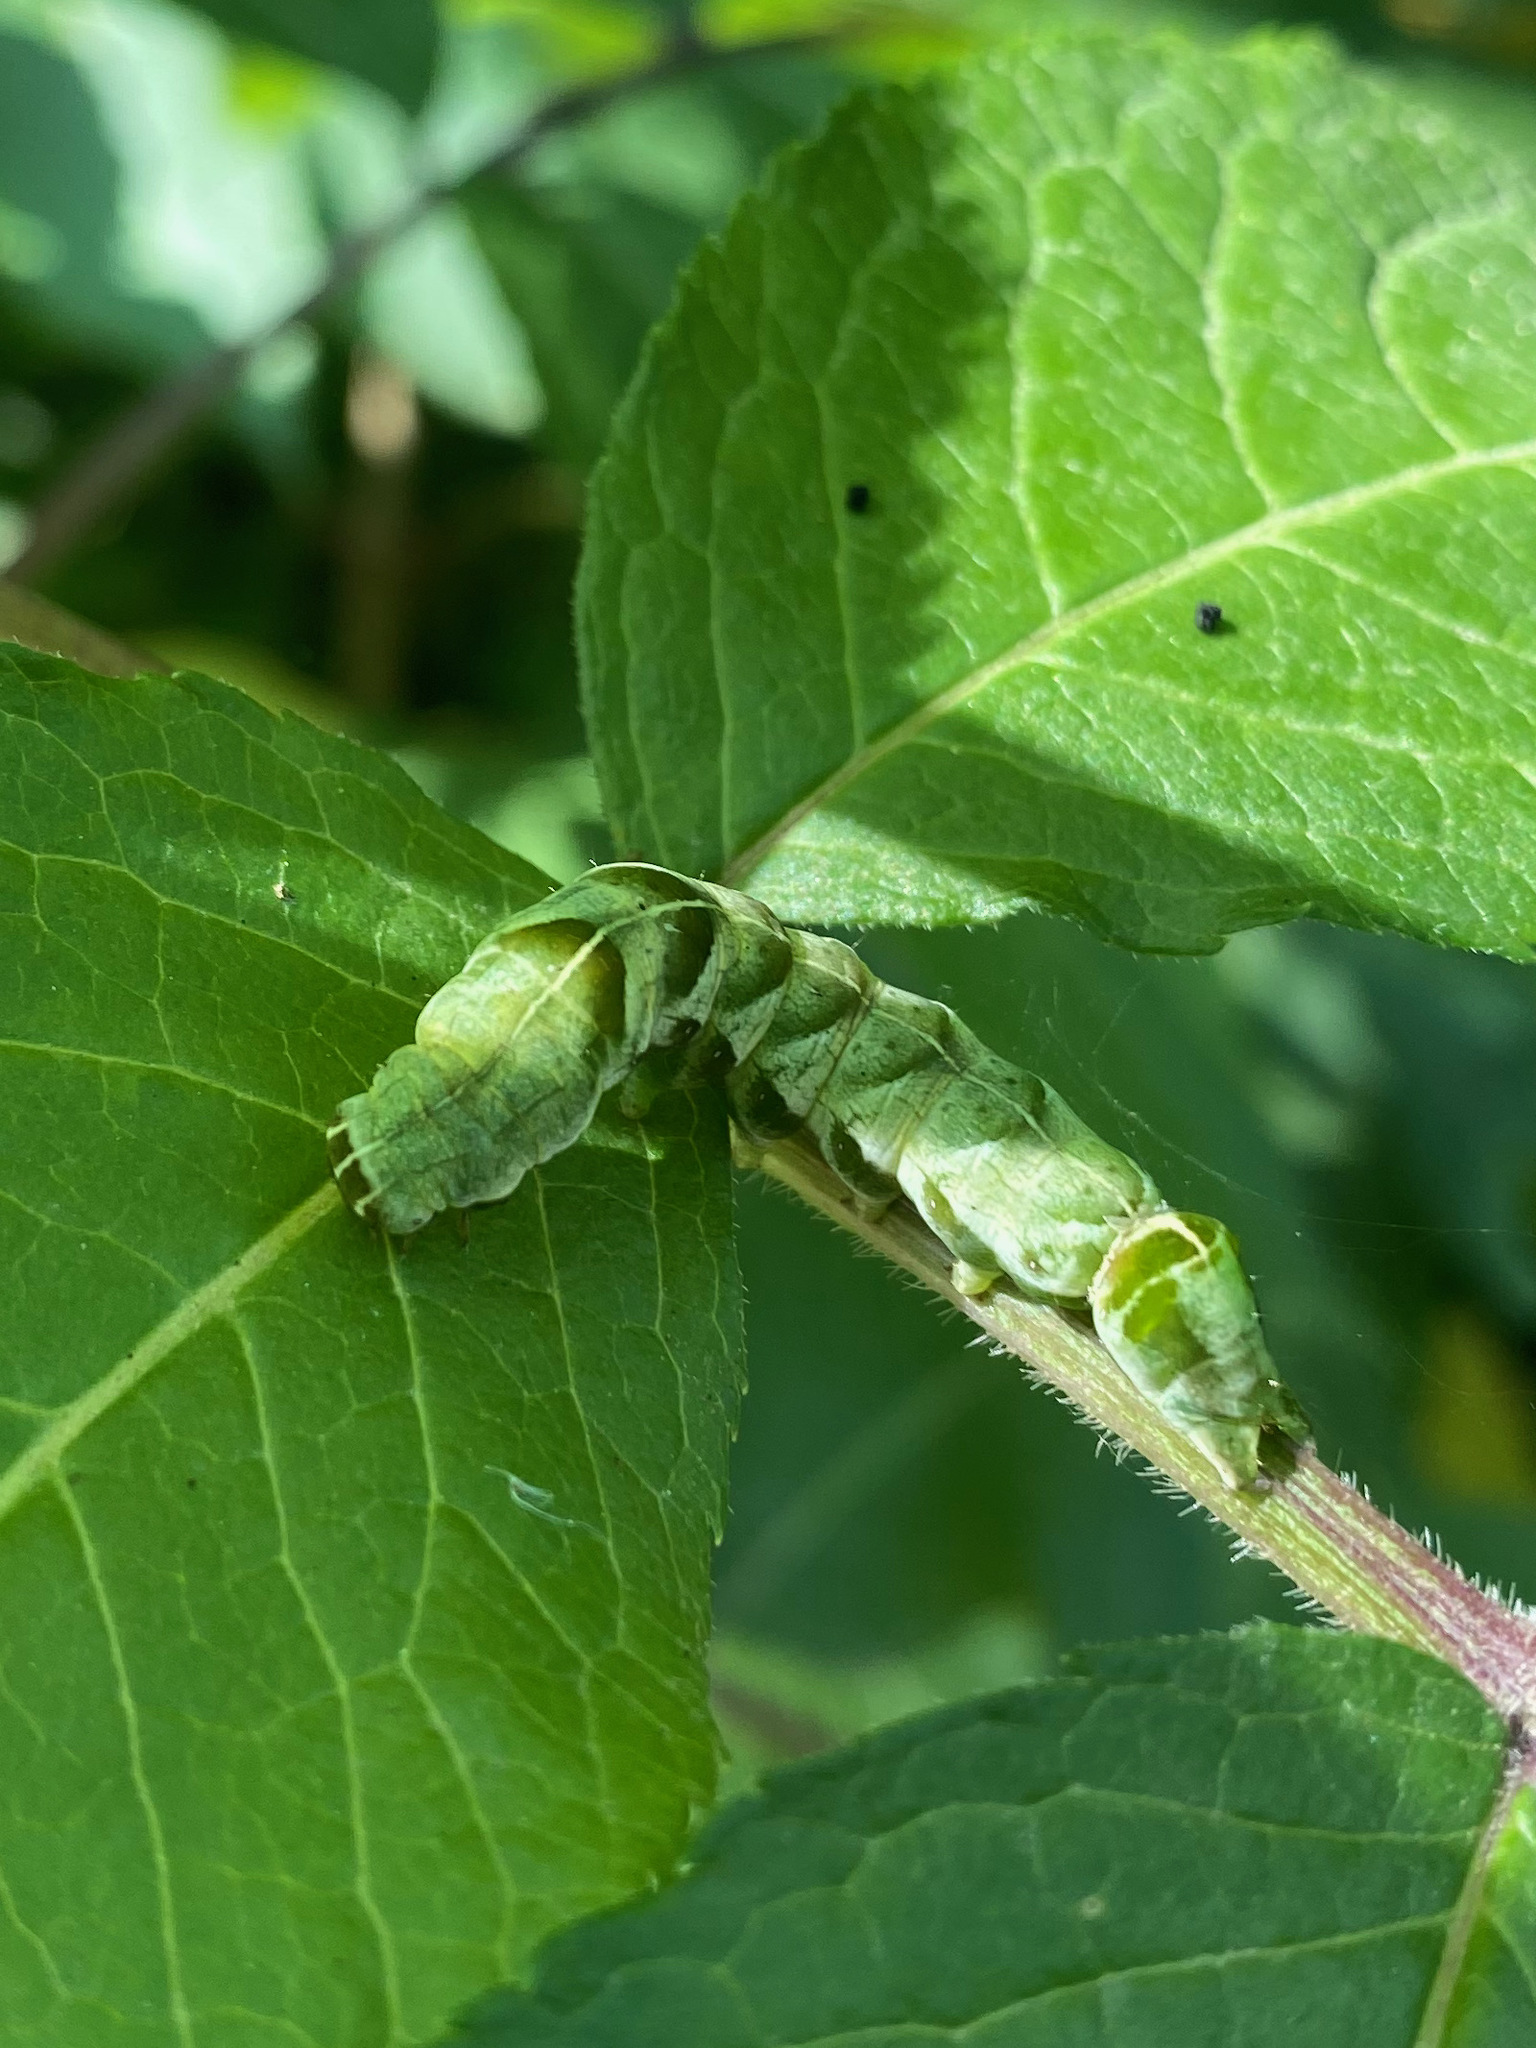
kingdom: Animalia
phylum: Arthropoda
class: Insecta
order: Lepidoptera
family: Noctuidae
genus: Melanchra
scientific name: Melanchra adjuncta
